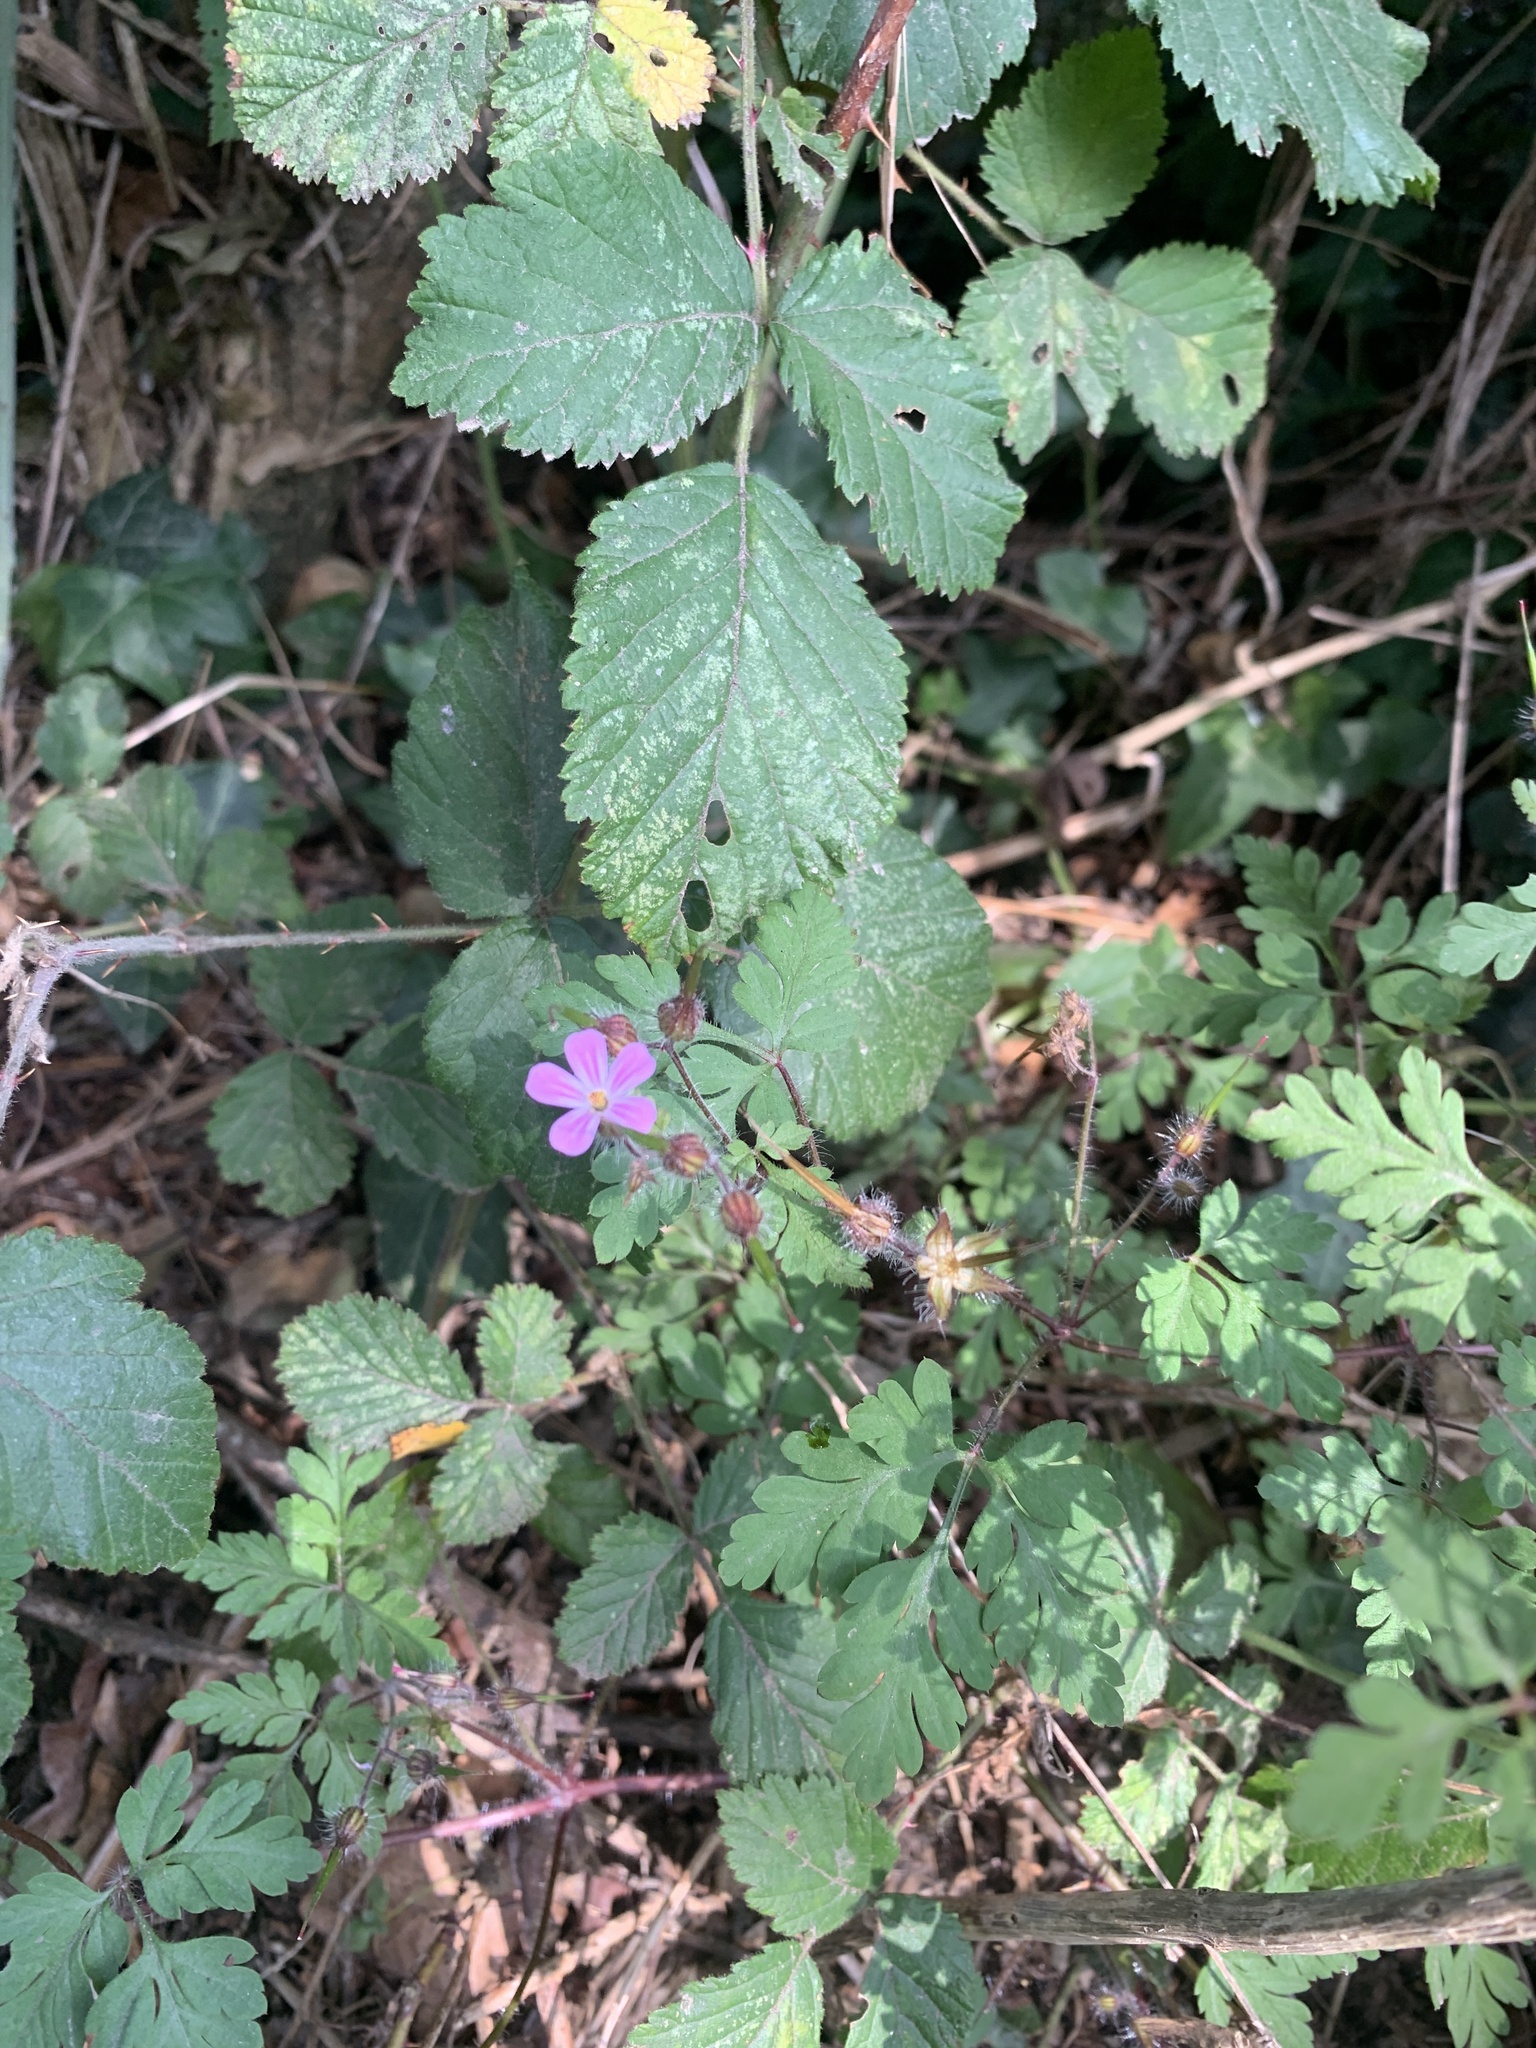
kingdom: Plantae
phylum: Tracheophyta
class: Magnoliopsida
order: Geraniales
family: Geraniaceae
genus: Geranium
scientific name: Geranium robertianum
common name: Herb-robert
